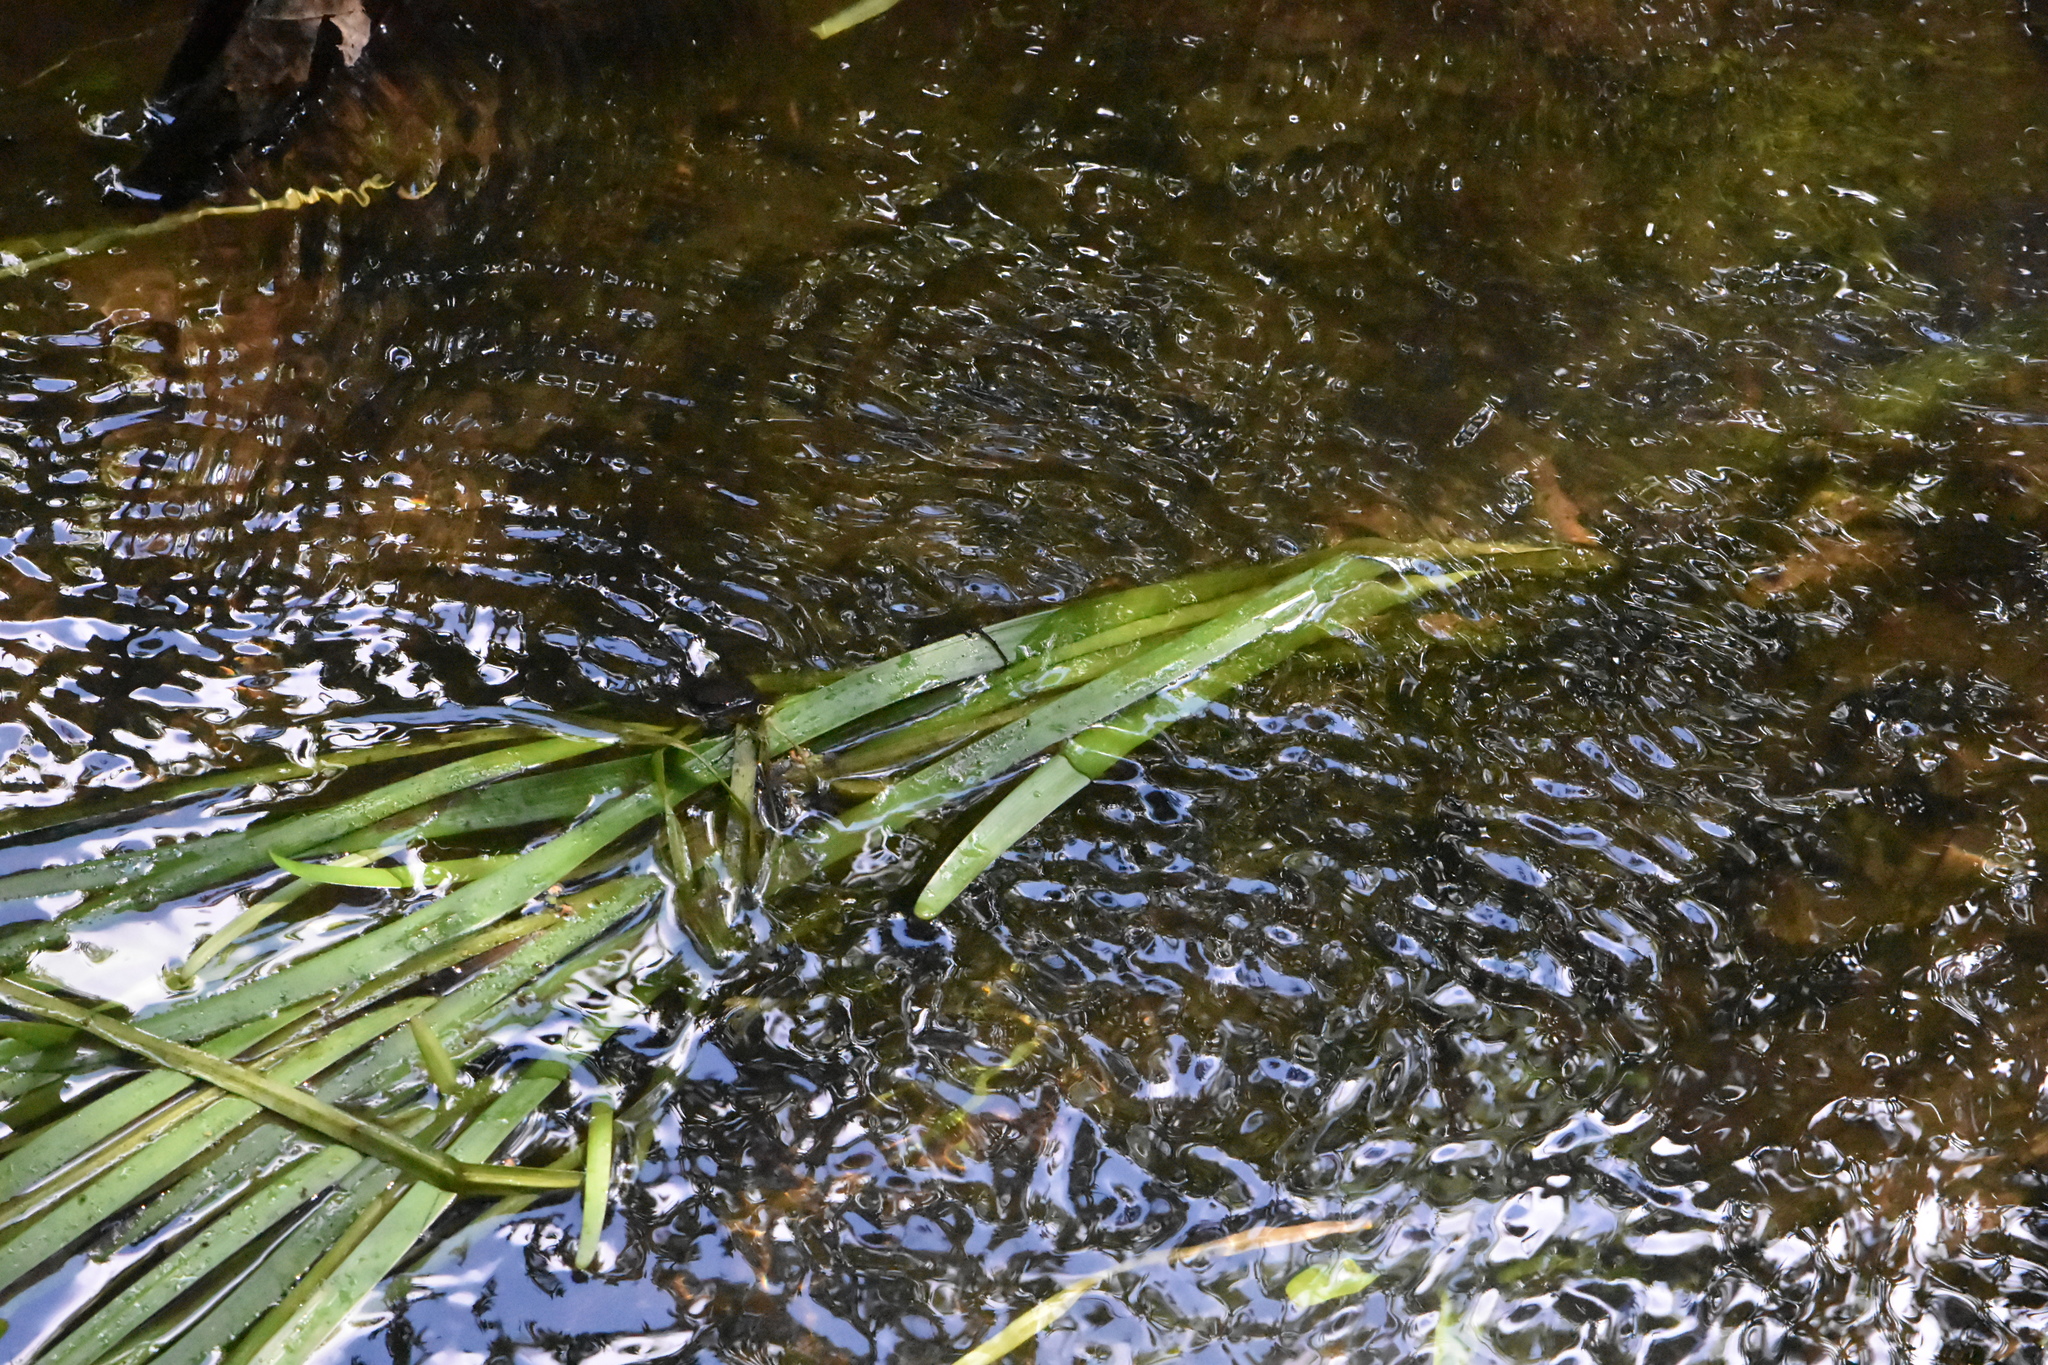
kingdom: Plantae
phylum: Tracheophyta
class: Liliopsida
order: Poales
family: Typhaceae
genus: Sparganium
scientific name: Sparganium emersum
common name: Unbranched bur-reed
